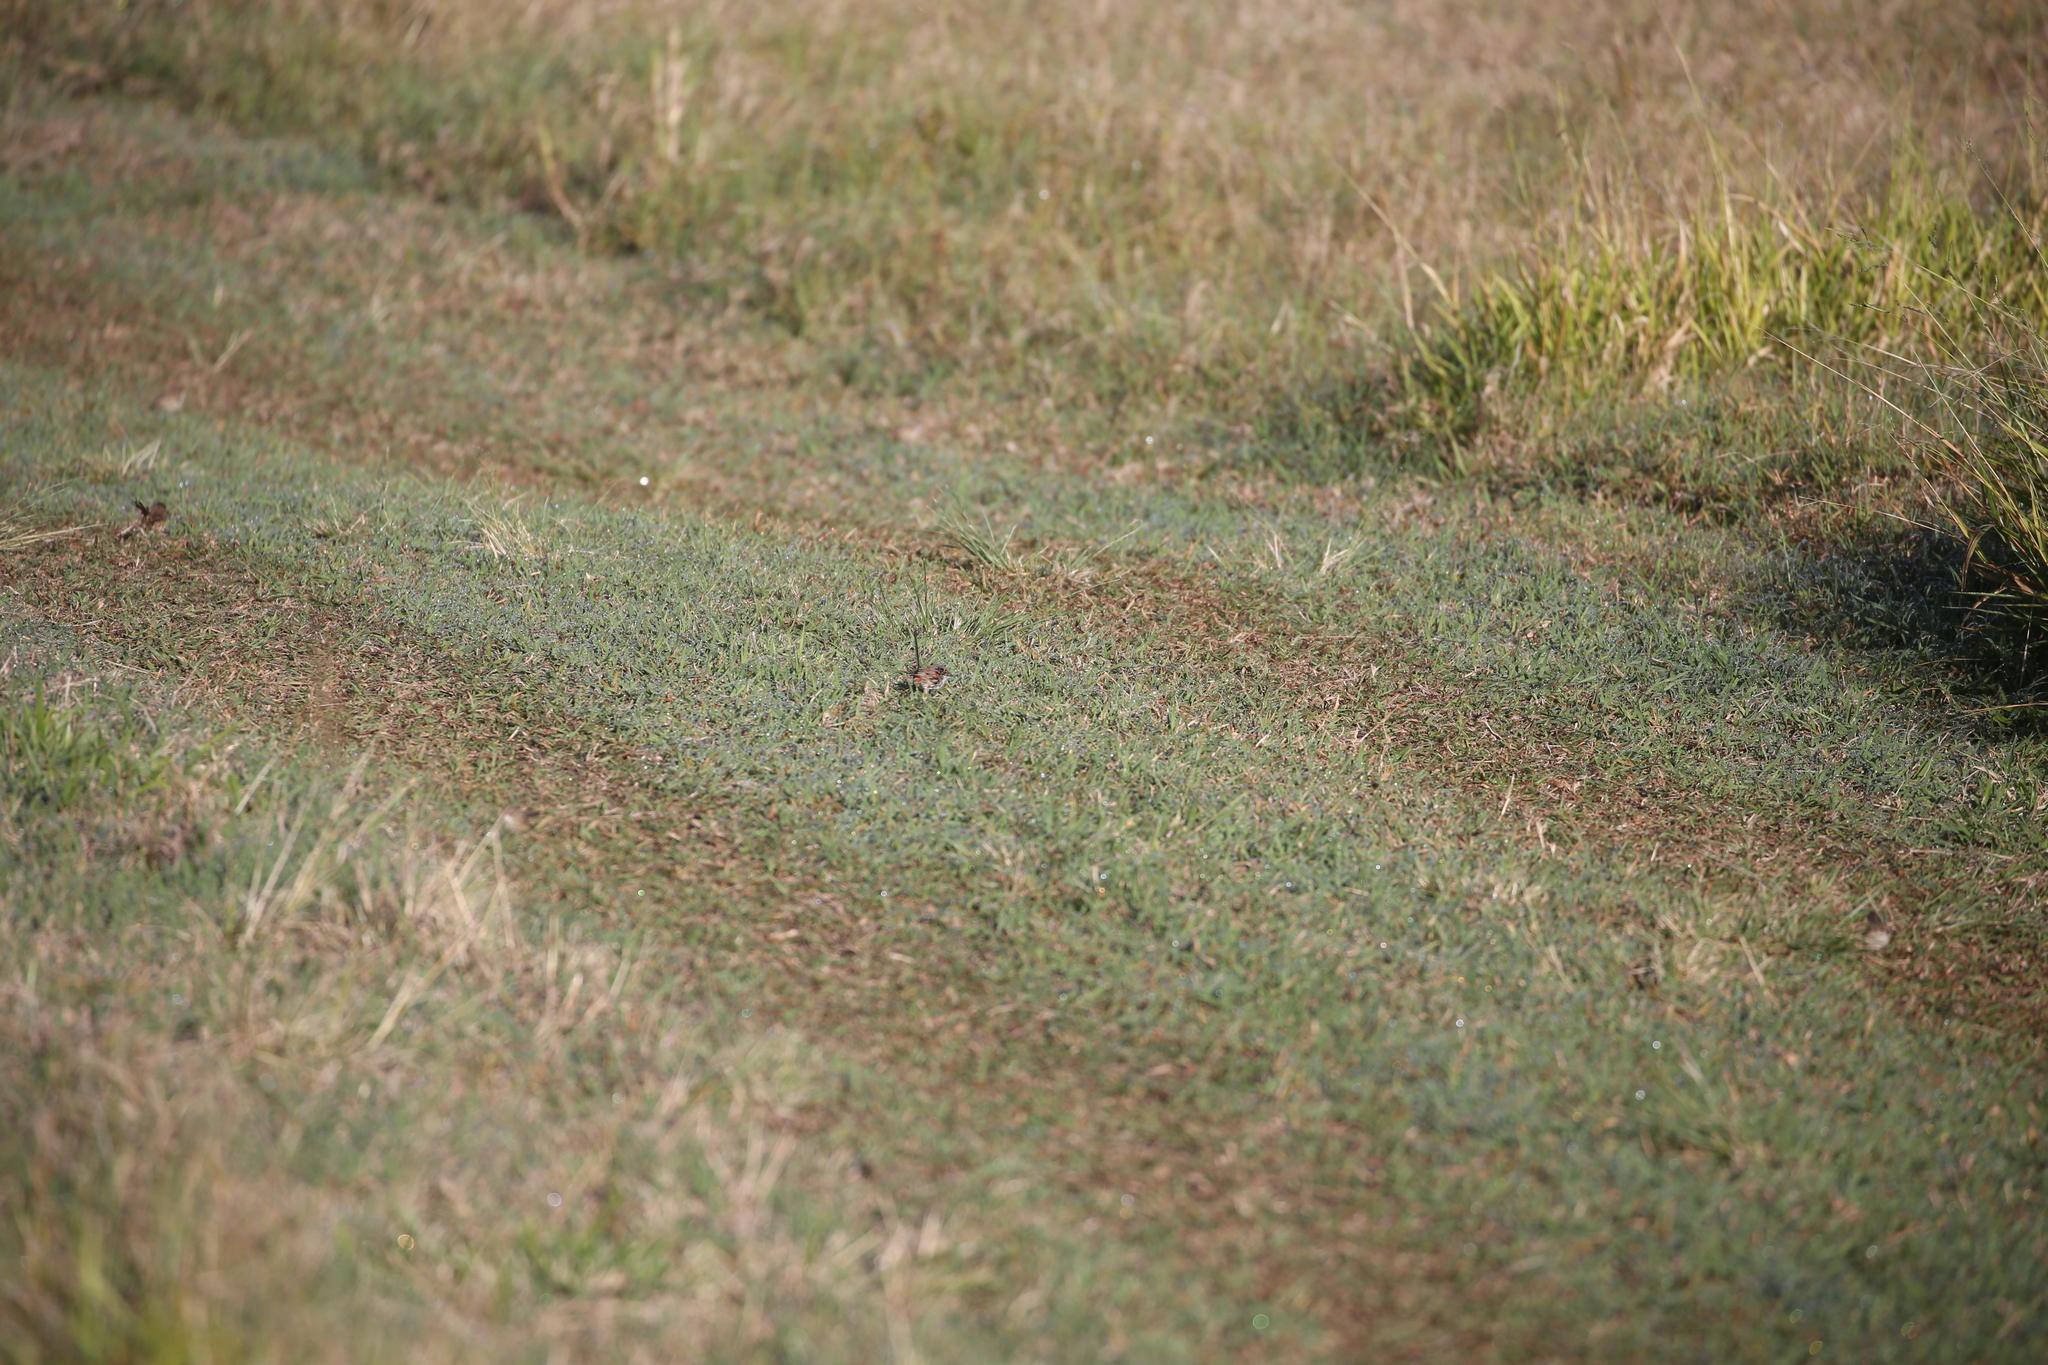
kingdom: Animalia
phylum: Chordata
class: Aves
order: Passeriformes
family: Maluridae
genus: Malurus
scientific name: Malurus melanocephalus
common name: Red-backed fairywren
